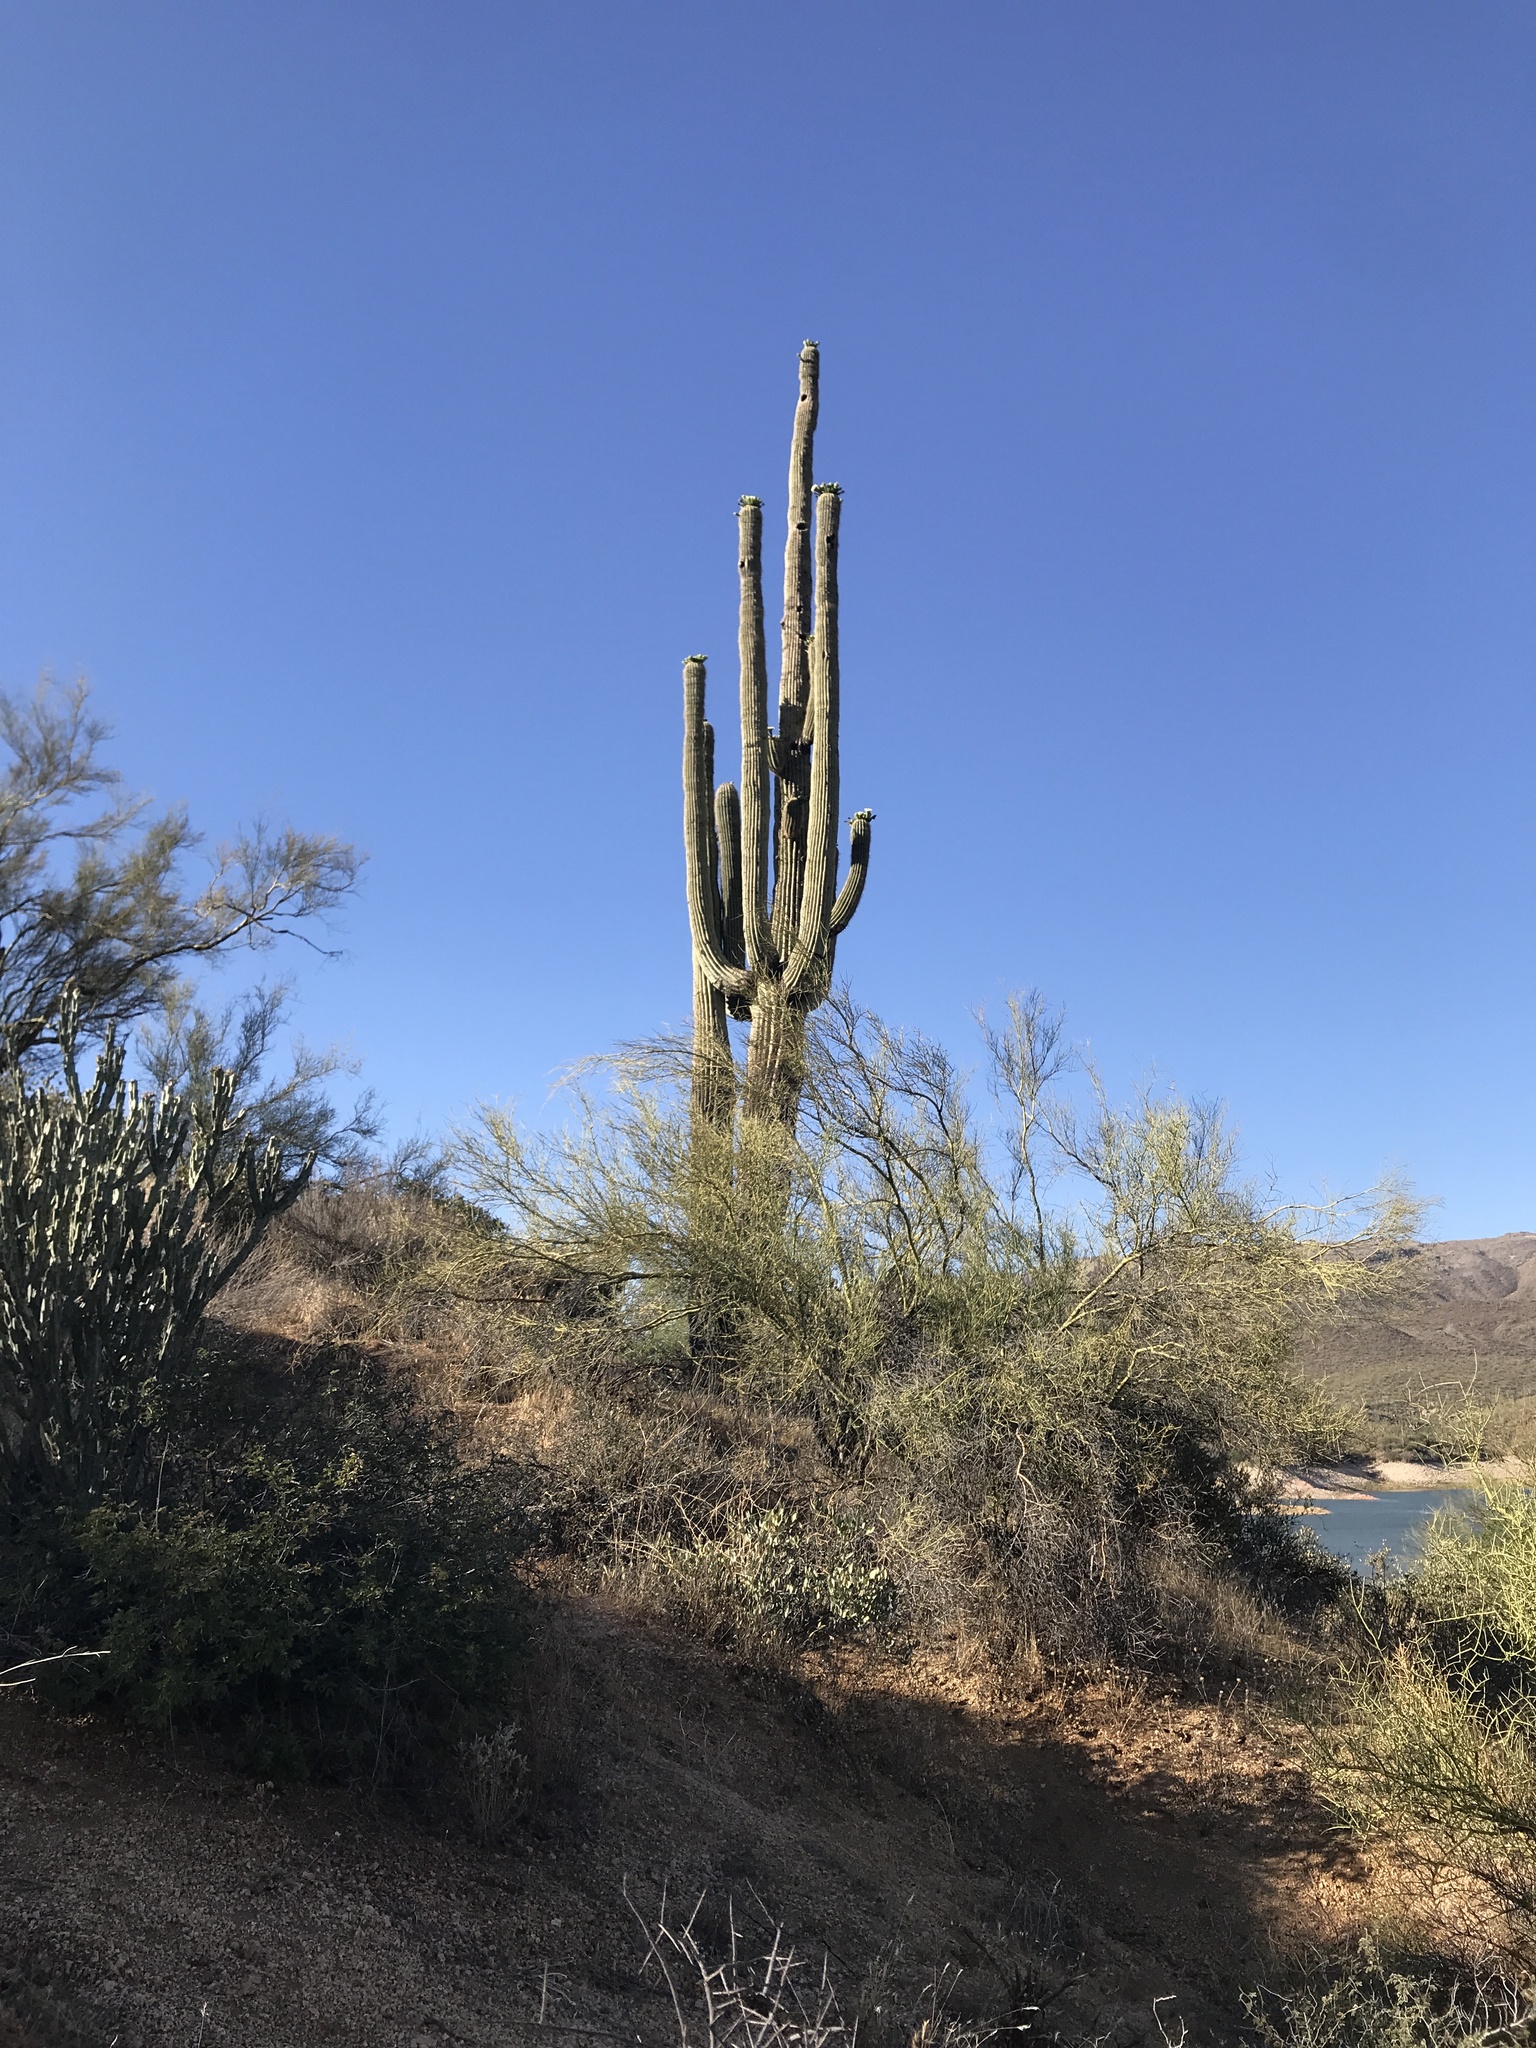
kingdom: Plantae
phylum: Tracheophyta
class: Magnoliopsida
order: Caryophyllales
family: Cactaceae
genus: Carnegiea
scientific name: Carnegiea gigantea
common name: Saguaro
